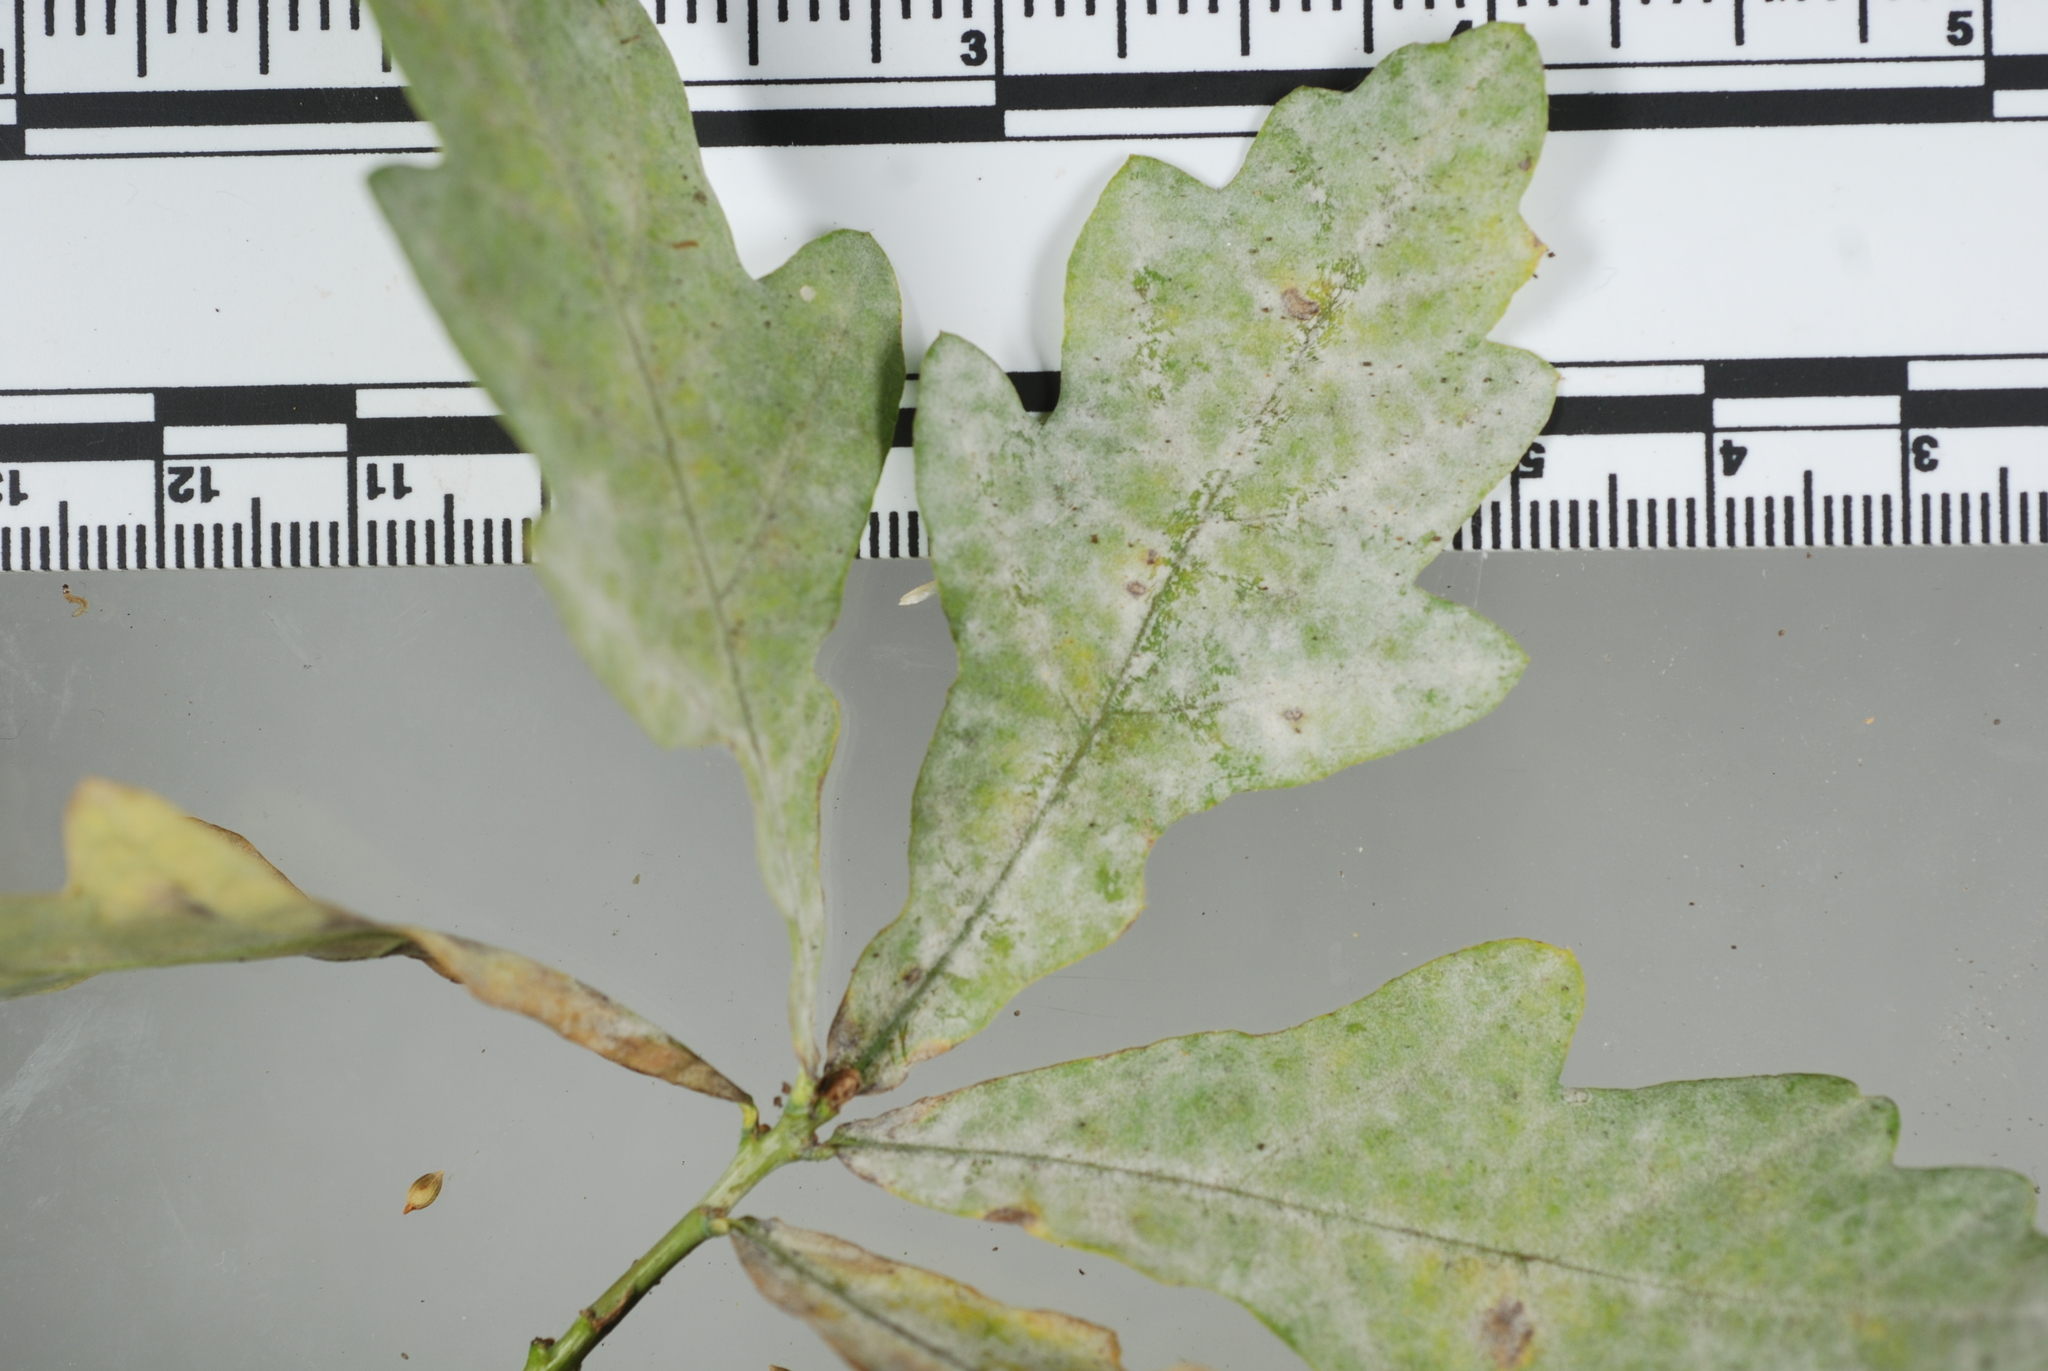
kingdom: Fungi
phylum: Ascomycota
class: Leotiomycetes
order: Helotiales
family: Erysiphaceae
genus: Erysiphe
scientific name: Erysiphe alphitoides
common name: Oak mildew
